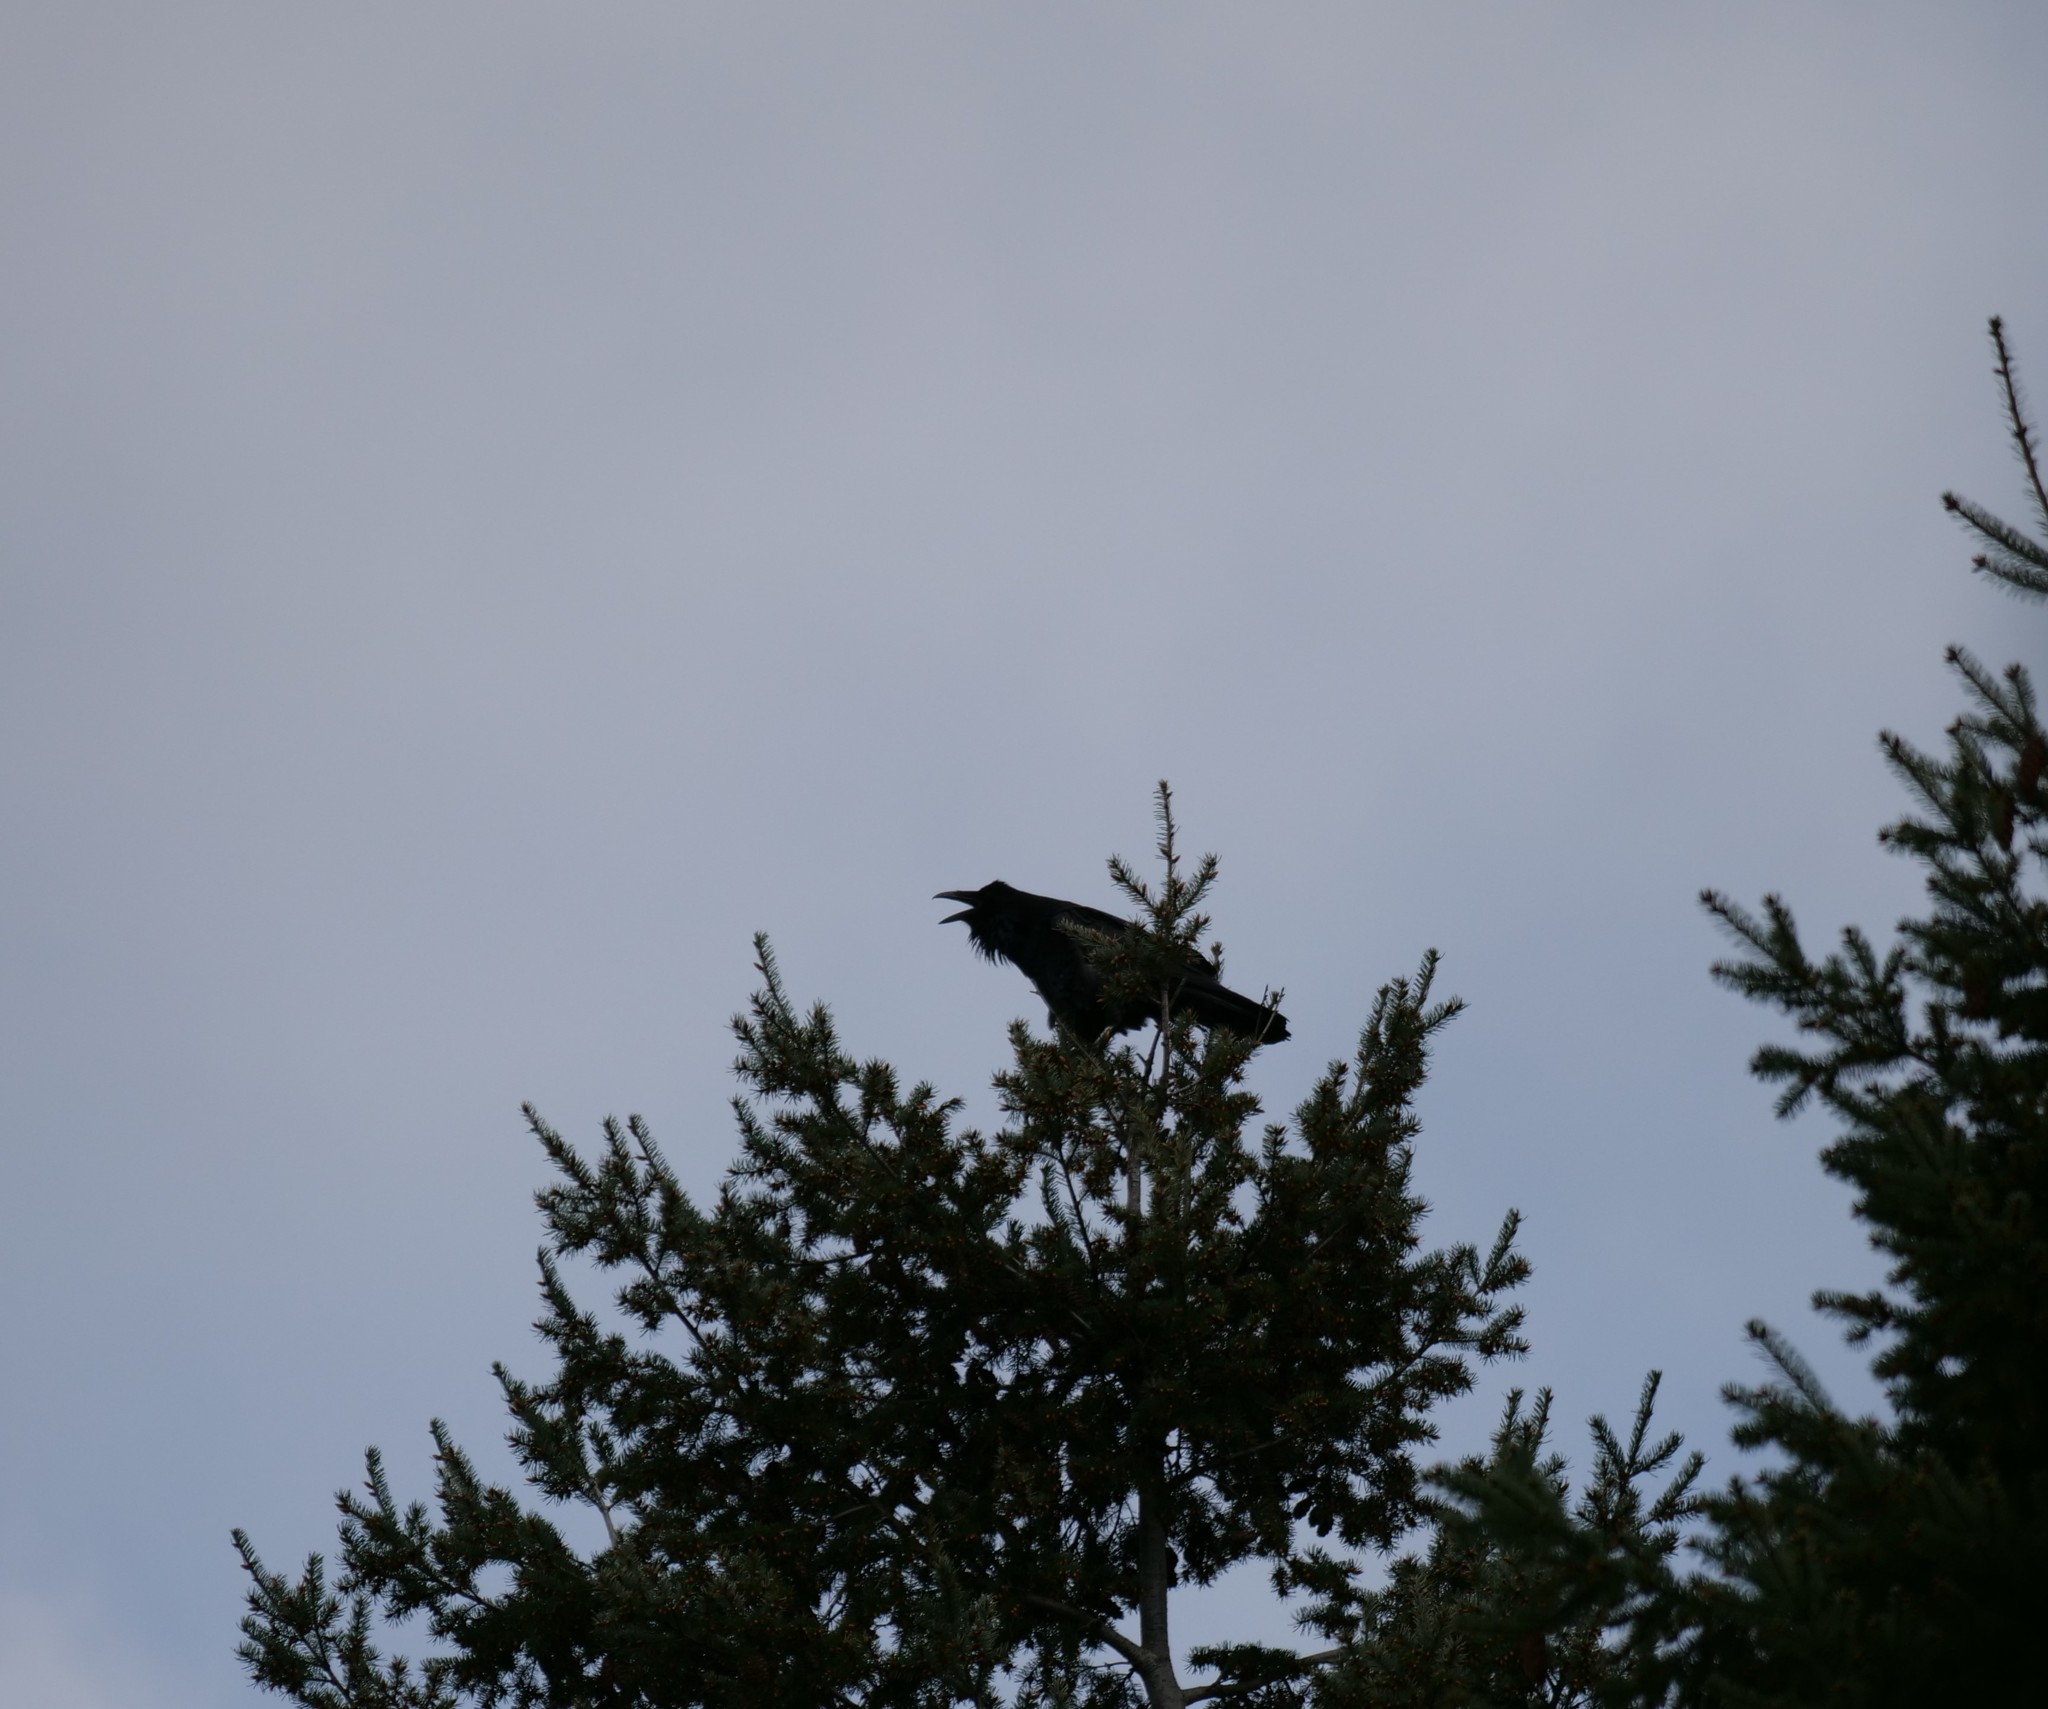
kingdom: Animalia
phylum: Chordata
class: Aves
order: Passeriformes
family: Corvidae
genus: Corvus
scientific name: Corvus corax
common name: Common raven
